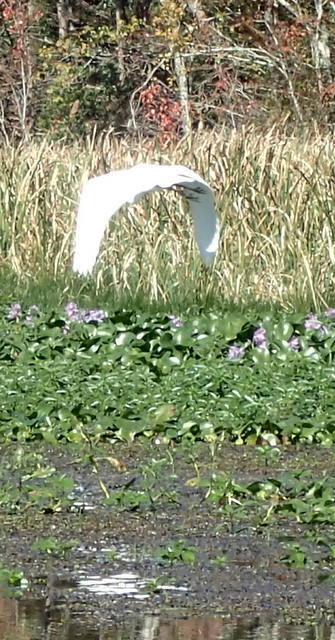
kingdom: Animalia
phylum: Chordata
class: Aves
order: Pelecaniformes
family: Ardeidae
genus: Ardea
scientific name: Ardea alba
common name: Great egret
